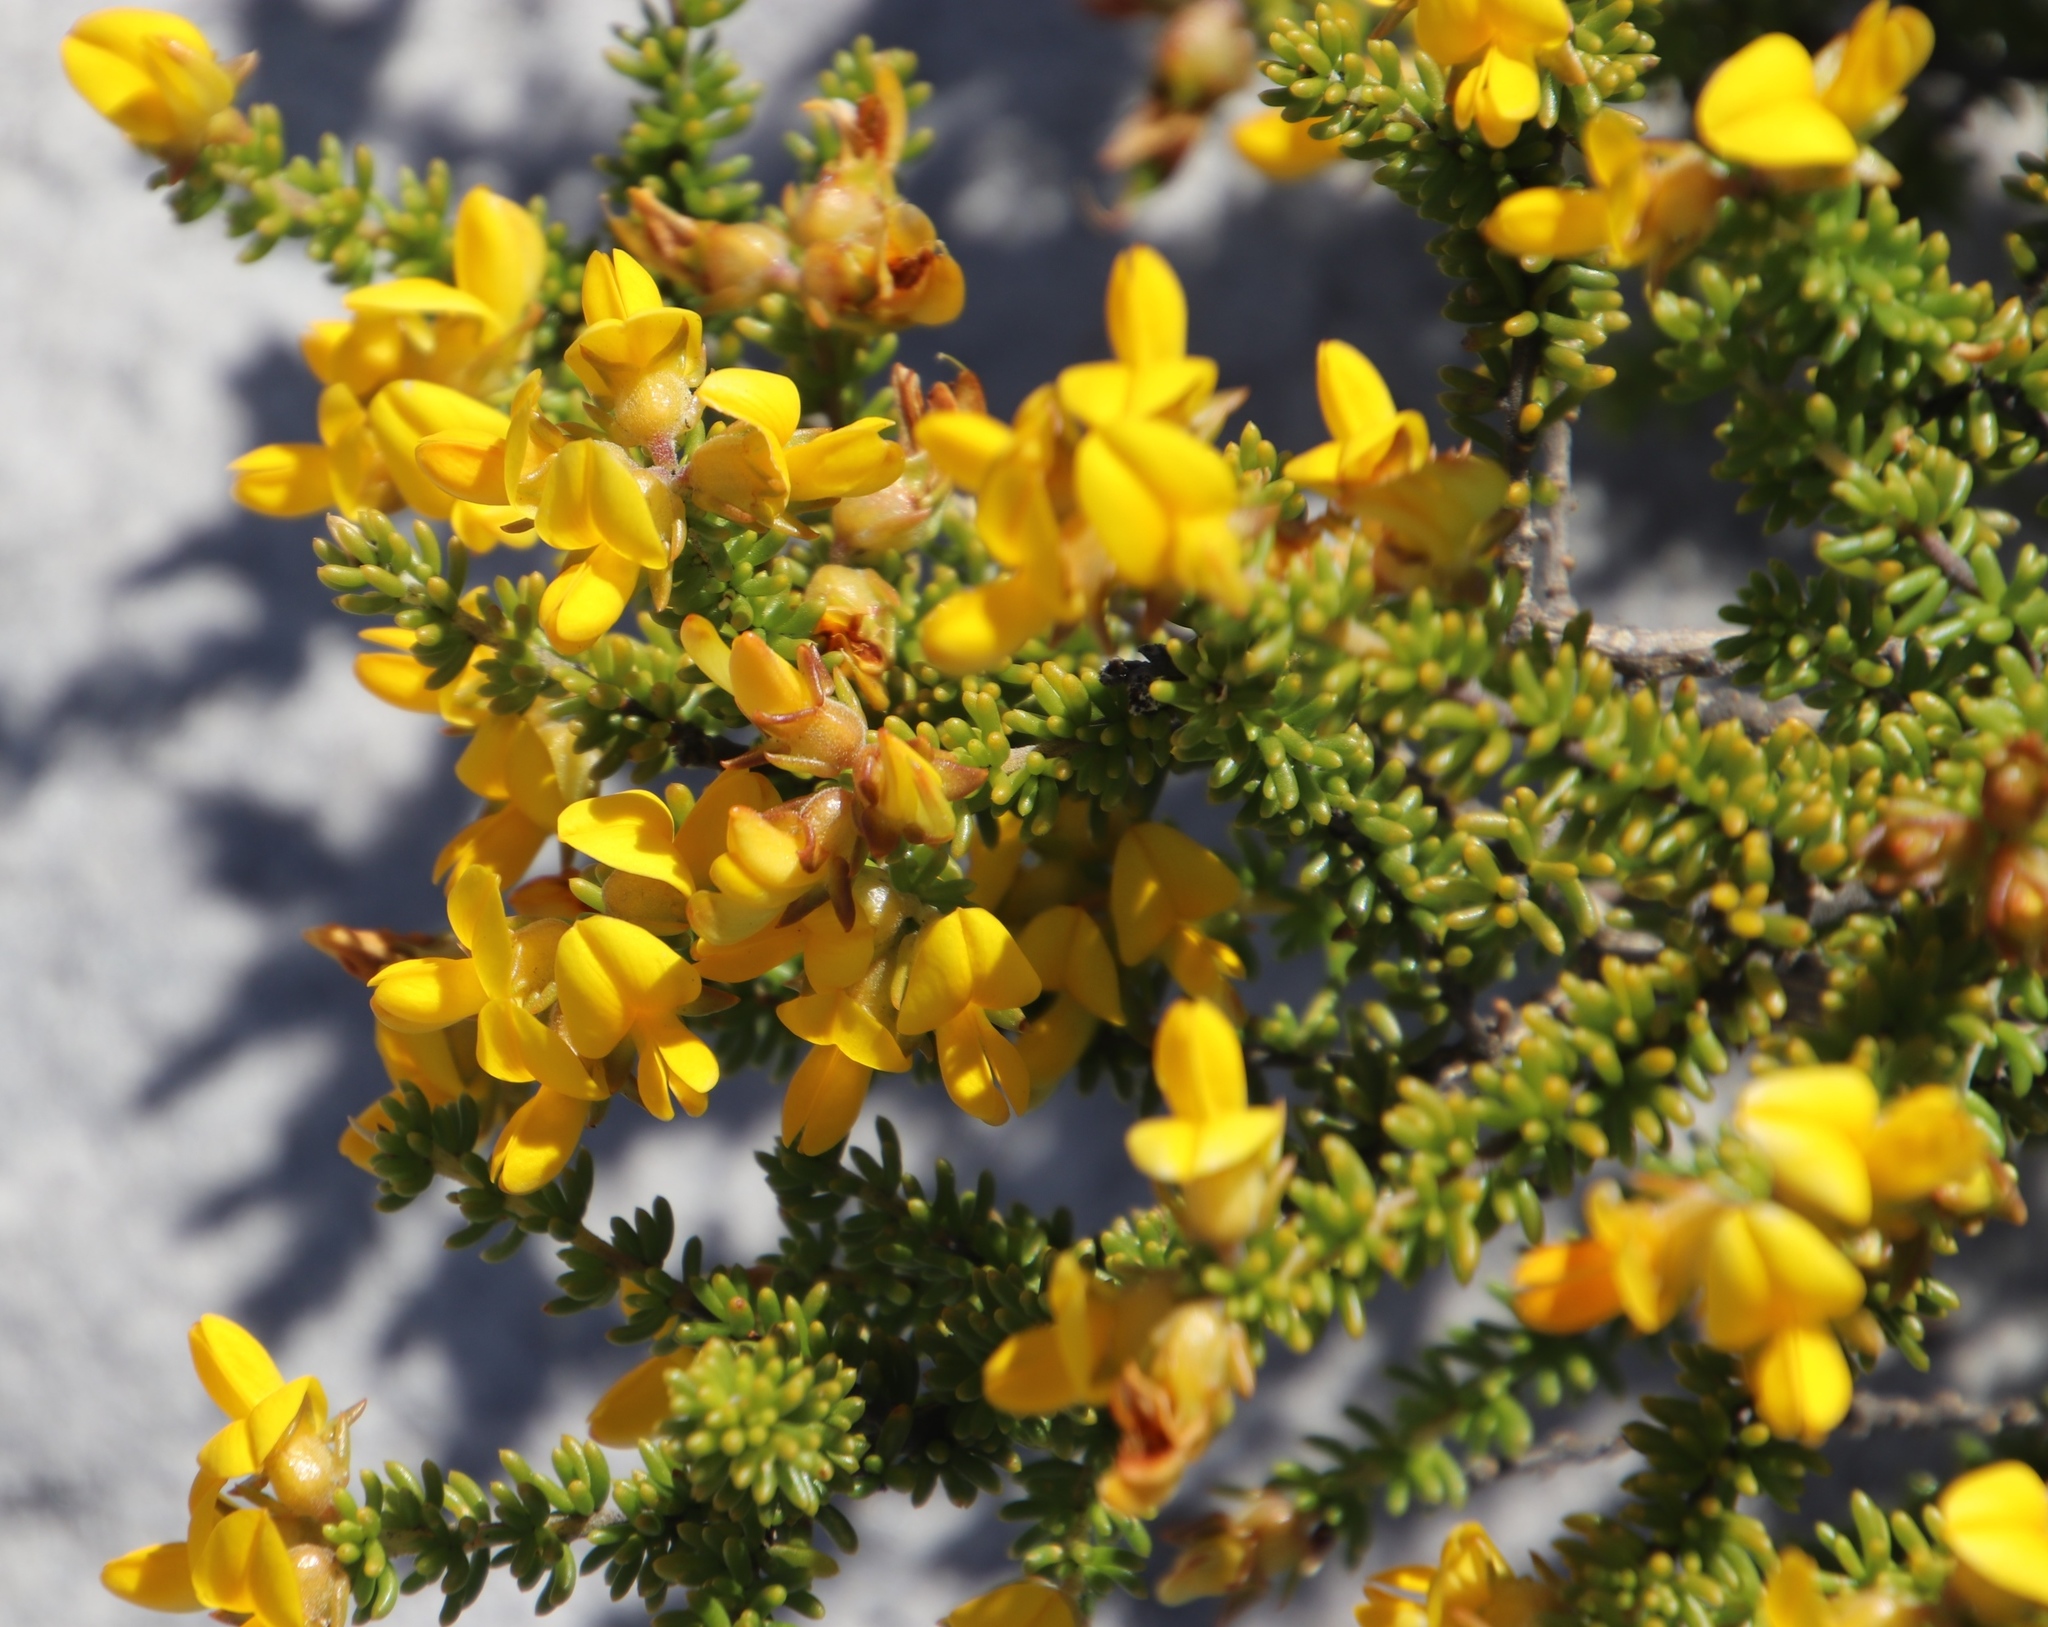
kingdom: Plantae
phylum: Tracheophyta
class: Magnoliopsida
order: Fabales
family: Fabaceae
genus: Aspalathus
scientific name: Aspalathus carnosa
